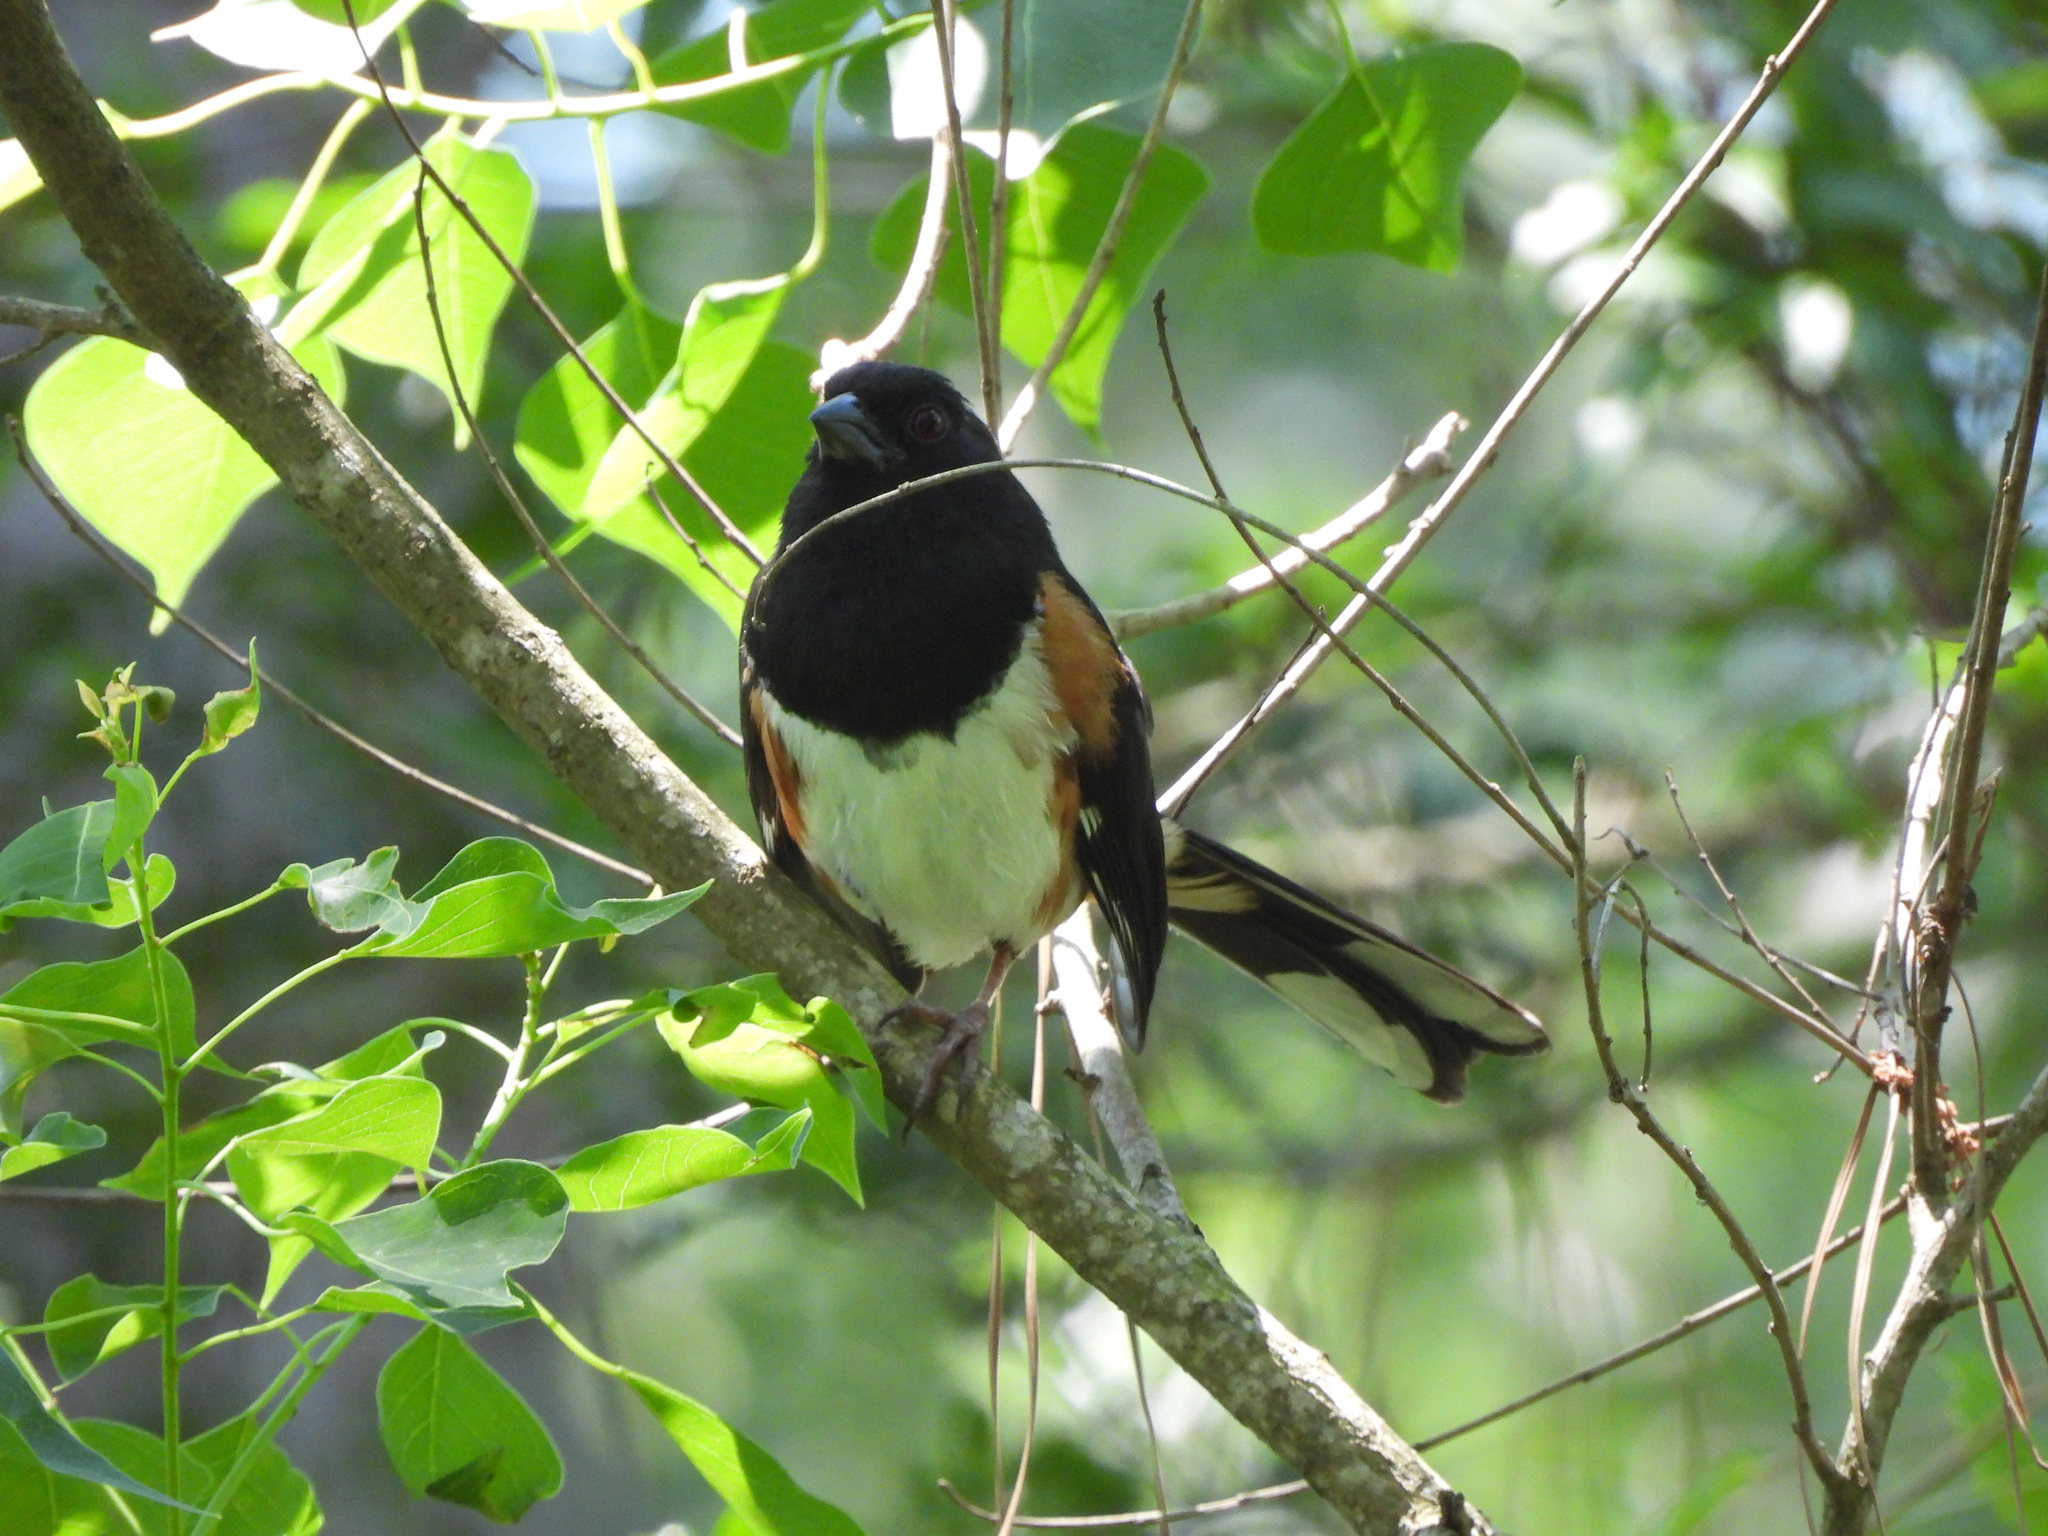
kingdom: Animalia
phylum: Chordata
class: Aves
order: Passeriformes
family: Passerellidae
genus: Pipilo
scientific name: Pipilo erythrophthalmus
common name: Eastern towhee
